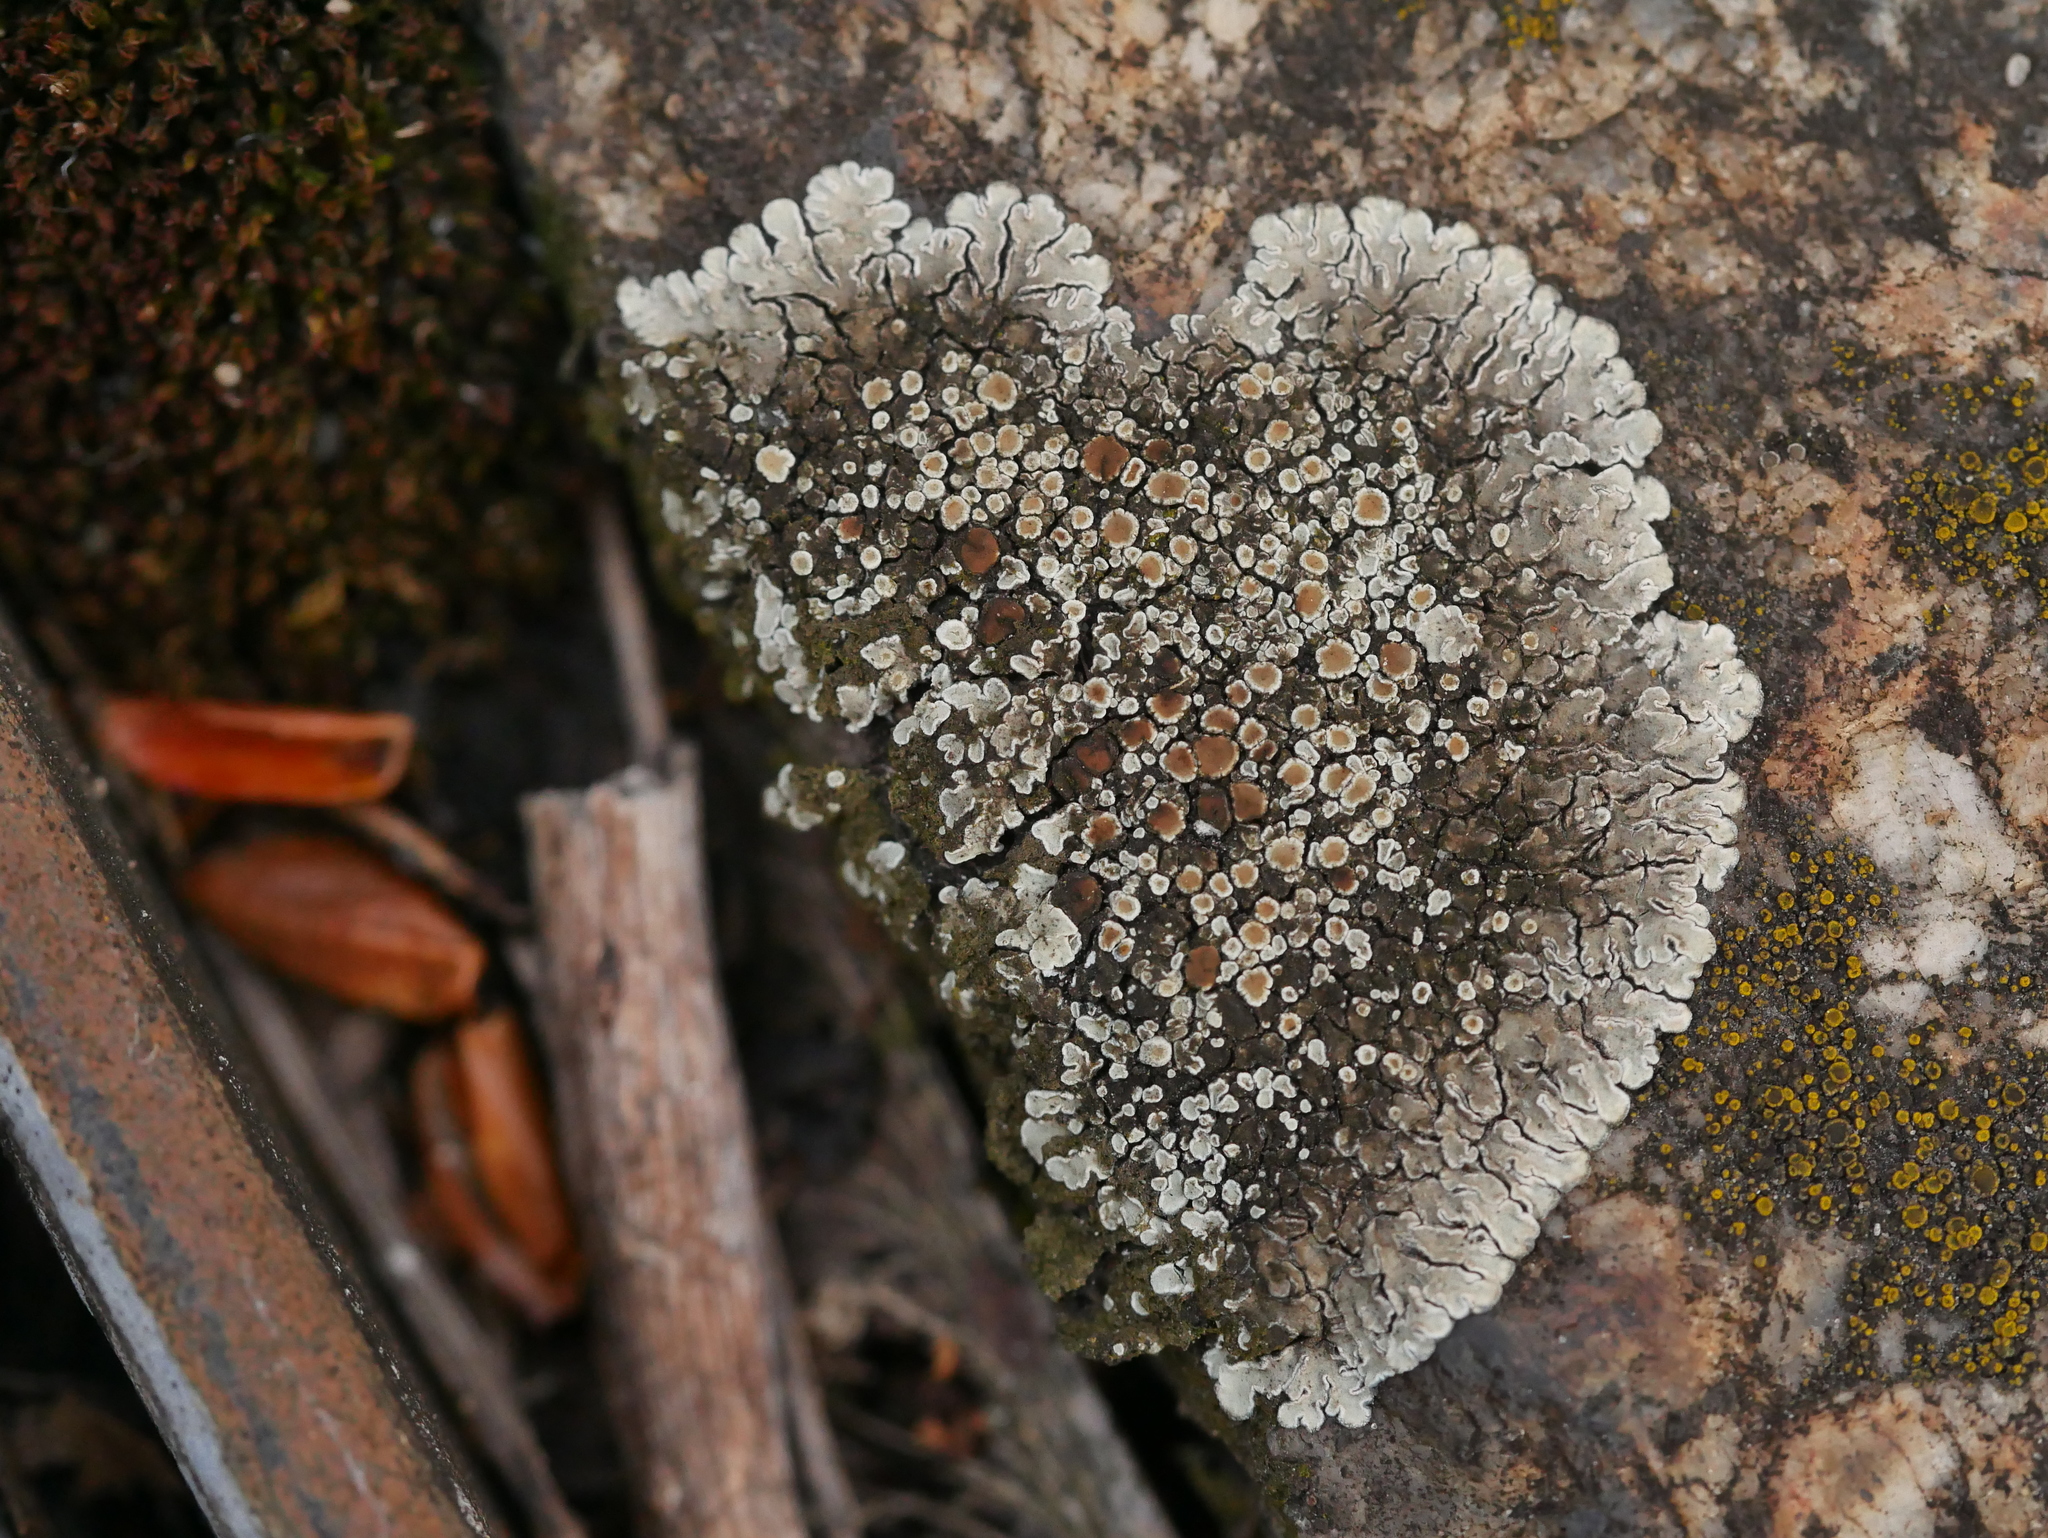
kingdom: Fungi
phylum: Ascomycota
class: Lecanoromycetes
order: Lecanorales
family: Lecanoraceae
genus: Protoparmeliopsis
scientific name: Protoparmeliopsis muralis
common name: Stonewall rim lichen
